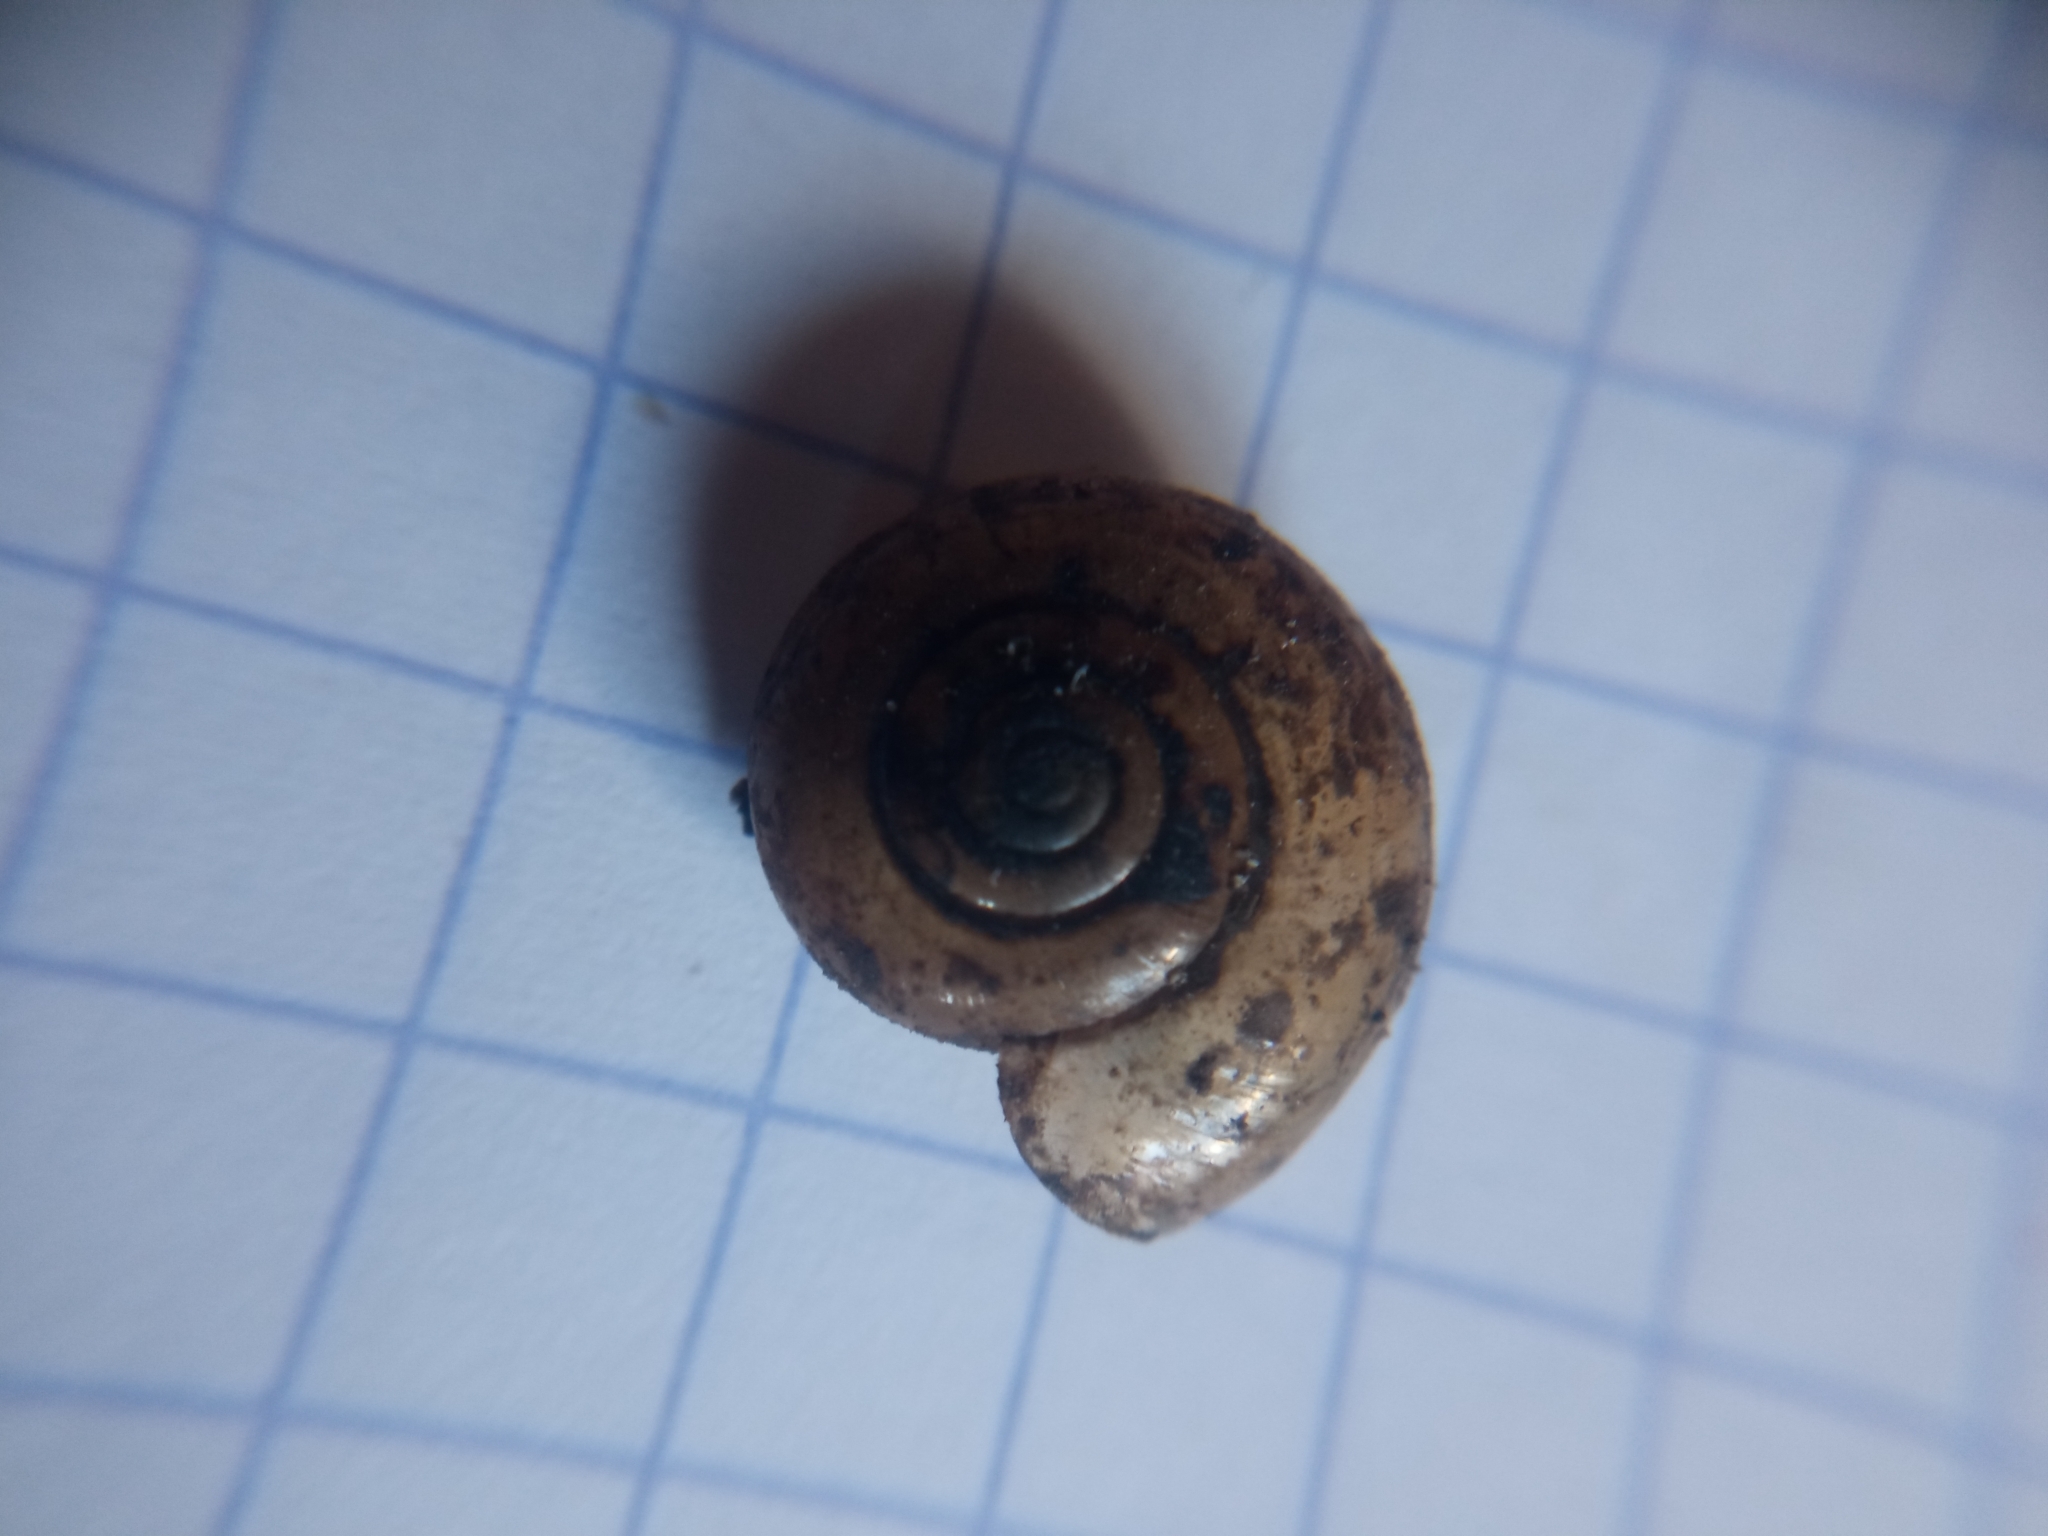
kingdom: Animalia
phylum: Mollusca
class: Gastropoda
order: Stylommatophora
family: Oxychilidae
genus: Oxychilus
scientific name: Oxychilus draparnaudi
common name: Draparnaud's glass snail
